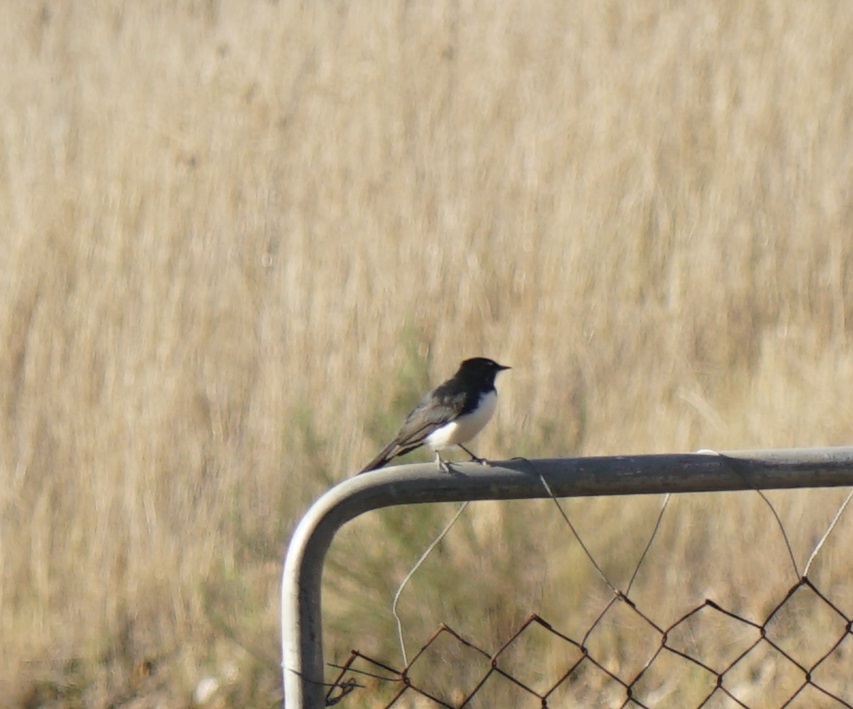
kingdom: Animalia
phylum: Chordata
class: Aves
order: Passeriformes
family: Rhipiduridae
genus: Rhipidura
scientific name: Rhipidura leucophrys
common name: Willie wagtail
